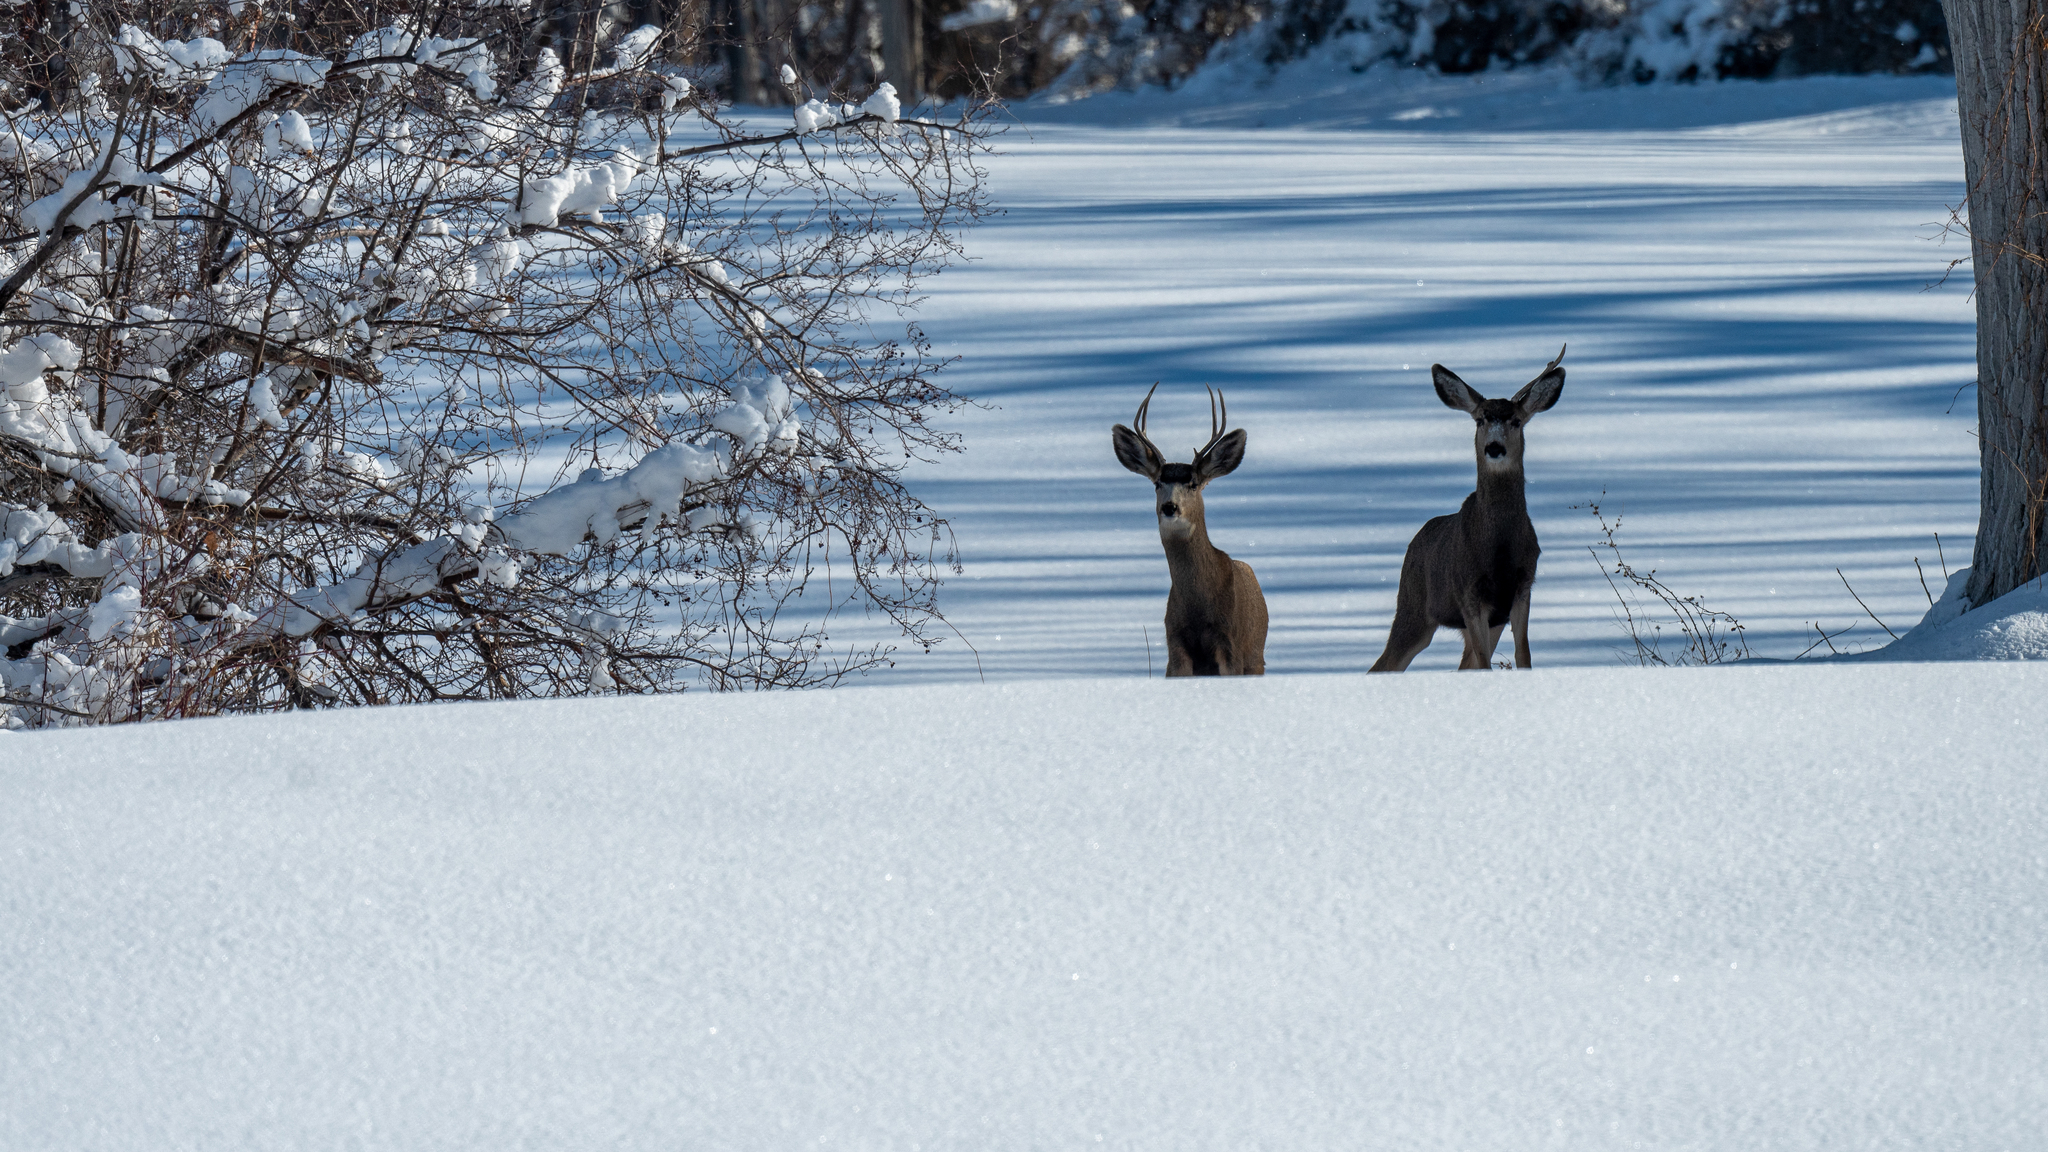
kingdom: Animalia
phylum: Chordata
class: Mammalia
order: Artiodactyla
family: Cervidae
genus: Odocoileus
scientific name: Odocoileus hemionus
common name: Mule deer
